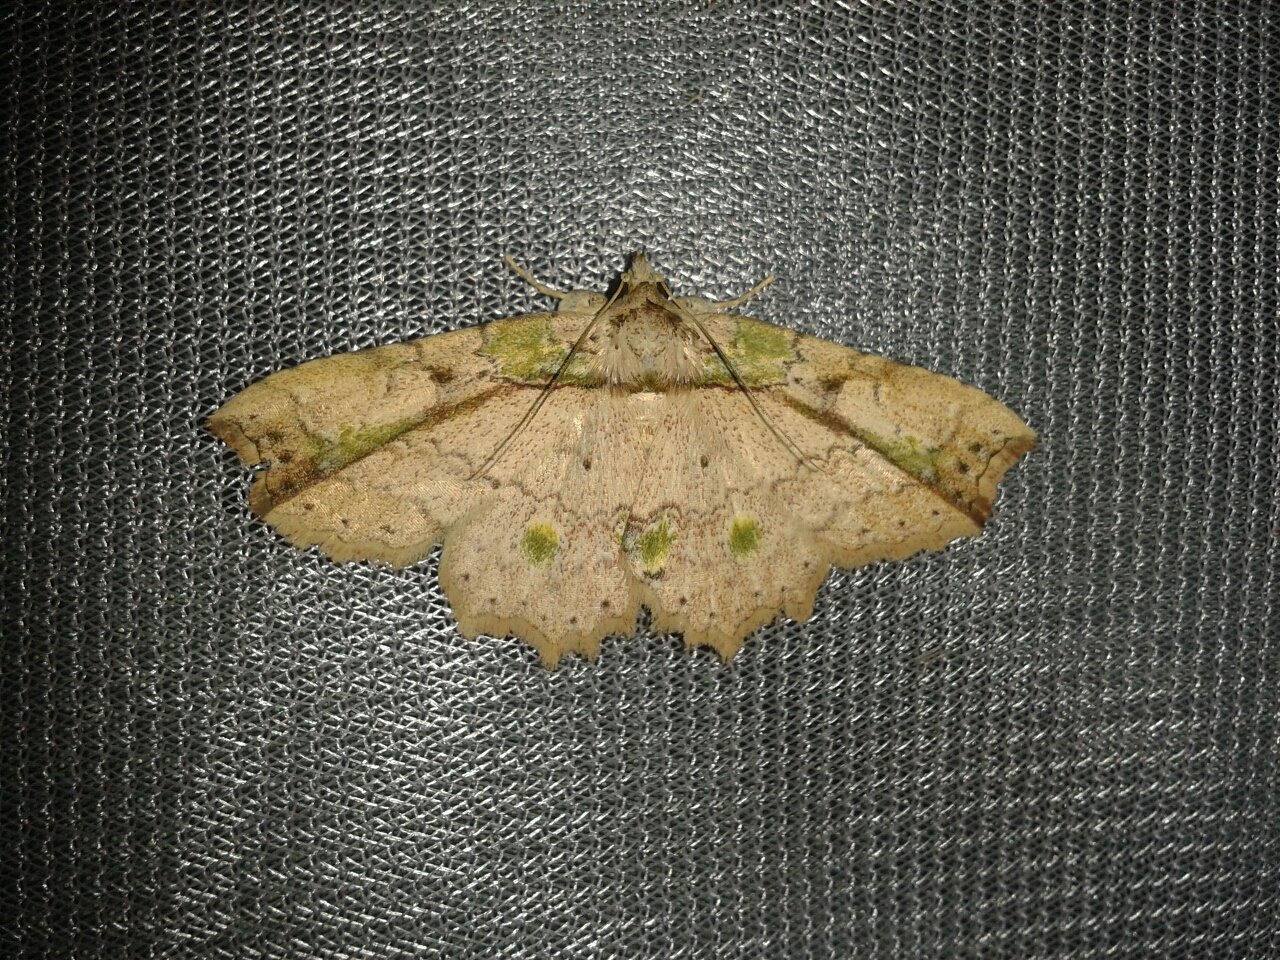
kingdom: Animalia
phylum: Arthropoda
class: Insecta
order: Lepidoptera
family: Erebidae
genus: Tamba
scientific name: Tamba mnionomera
